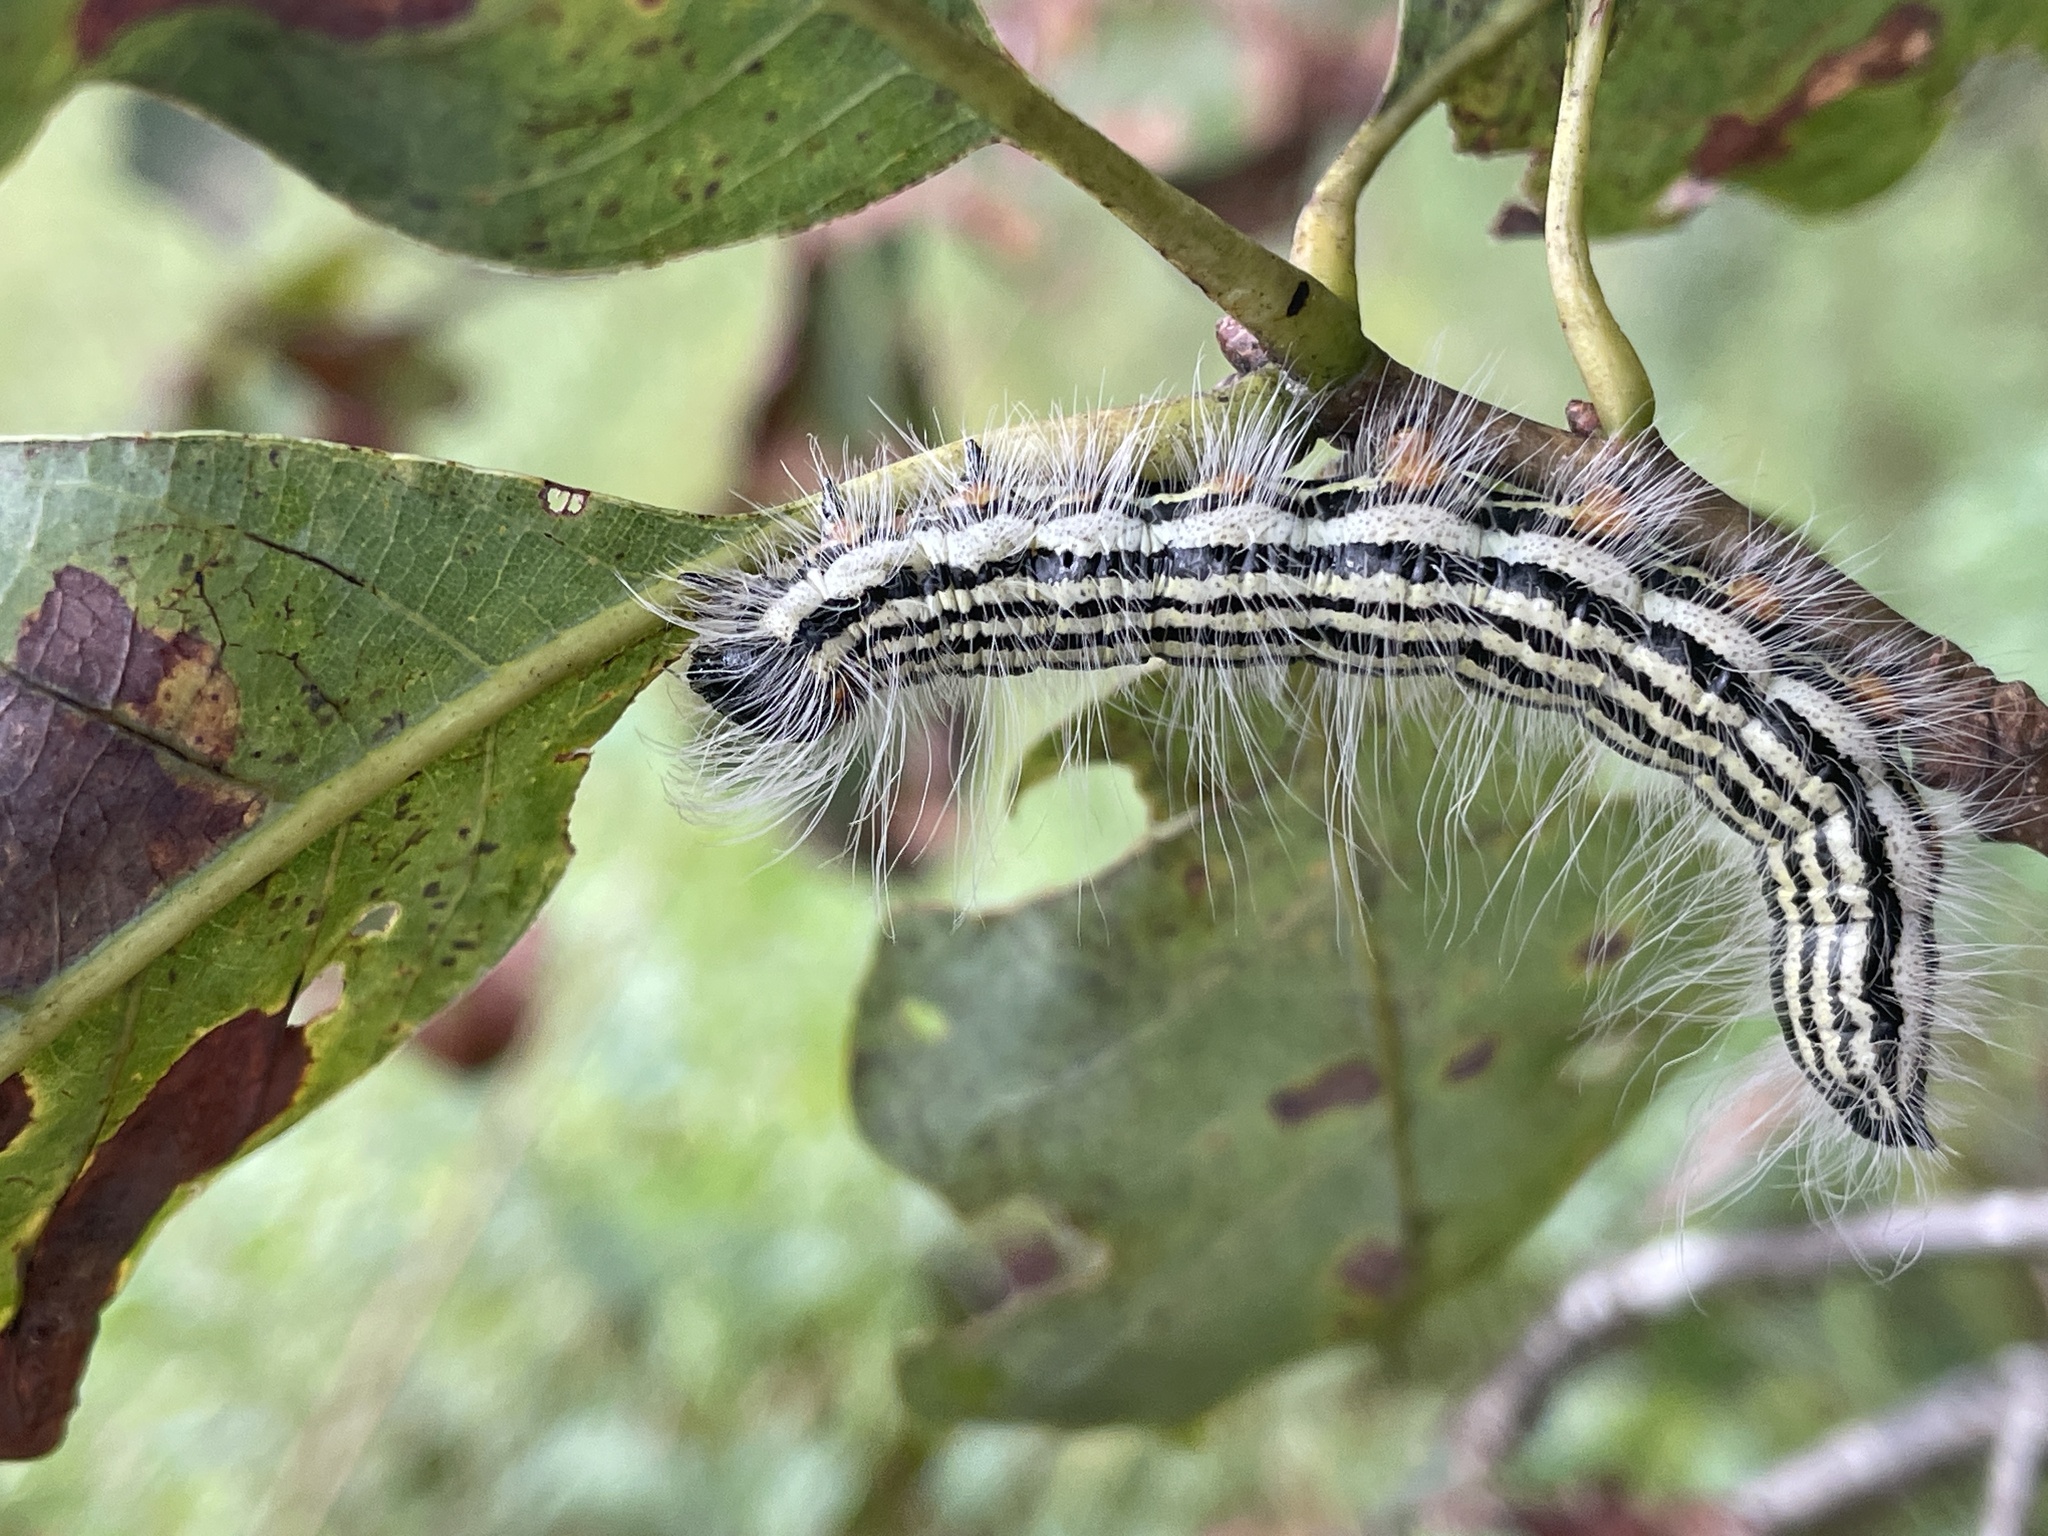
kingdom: Animalia
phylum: Arthropoda
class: Insecta
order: Lepidoptera
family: Notodontidae
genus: Datana
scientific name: Datana contracta
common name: Contracted datana
